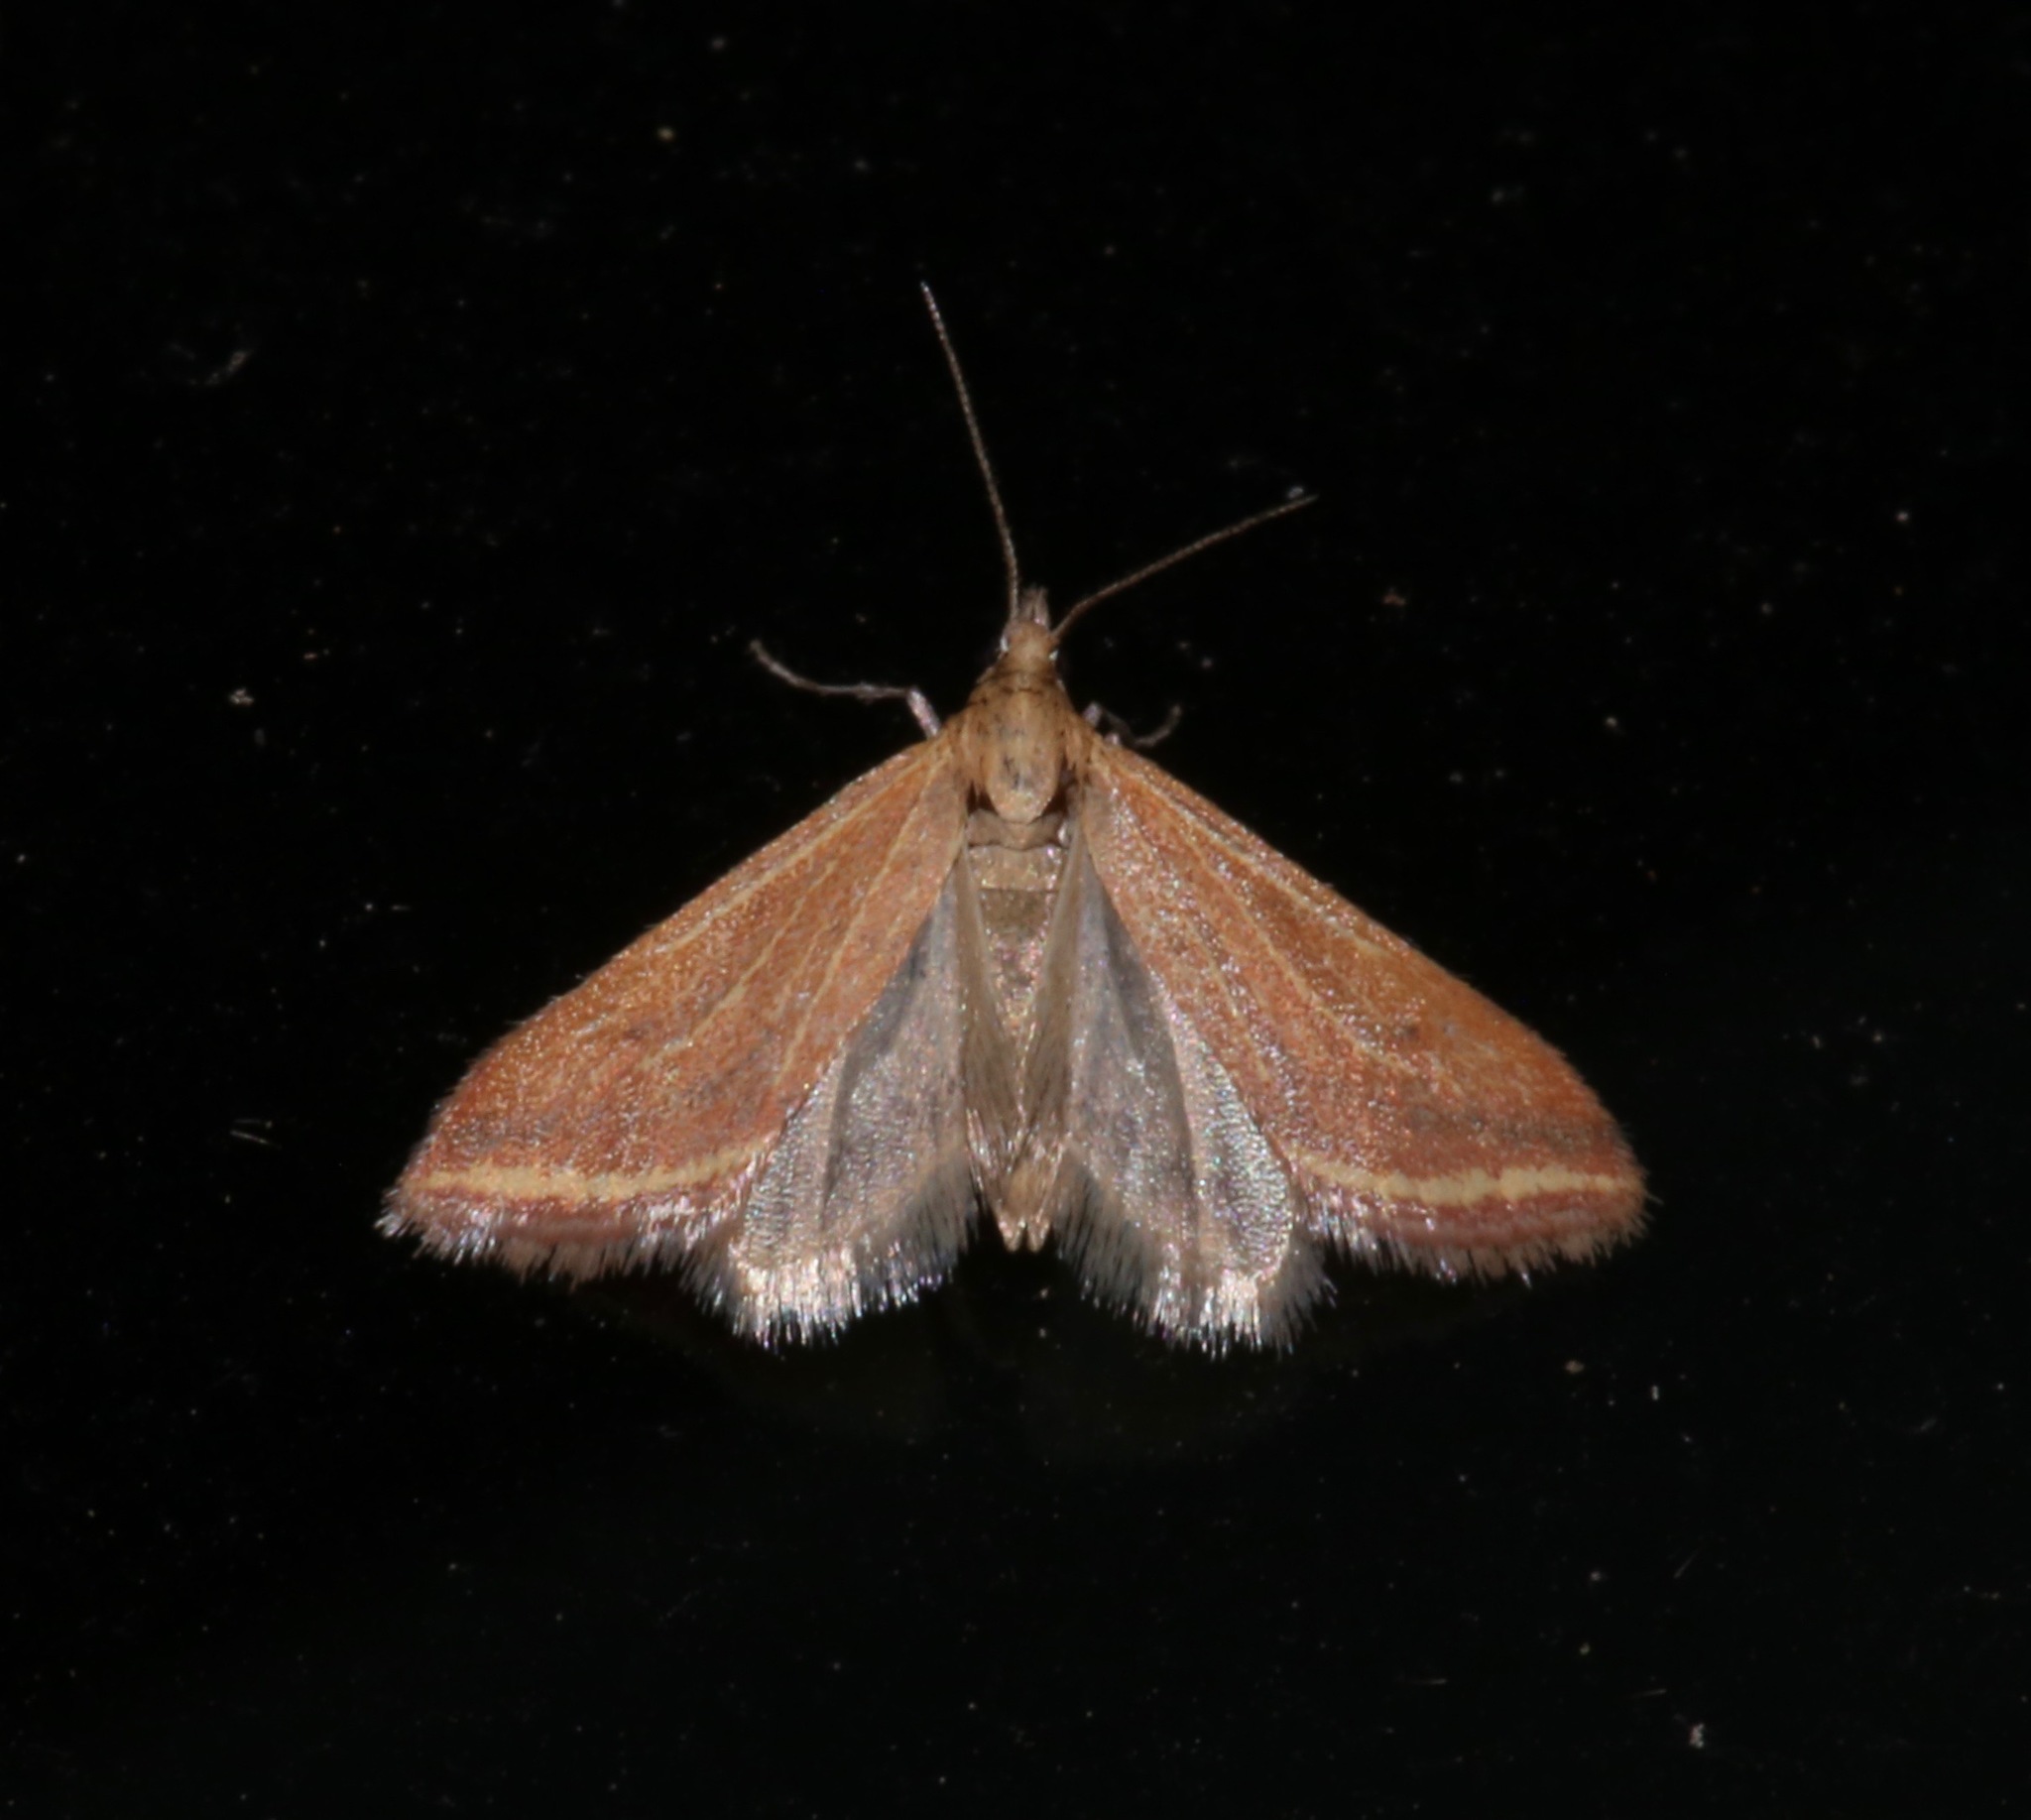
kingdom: Animalia
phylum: Arthropoda
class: Insecta
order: Lepidoptera
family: Crambidae
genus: Microtheoris
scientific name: Microtheoris ophionalis
